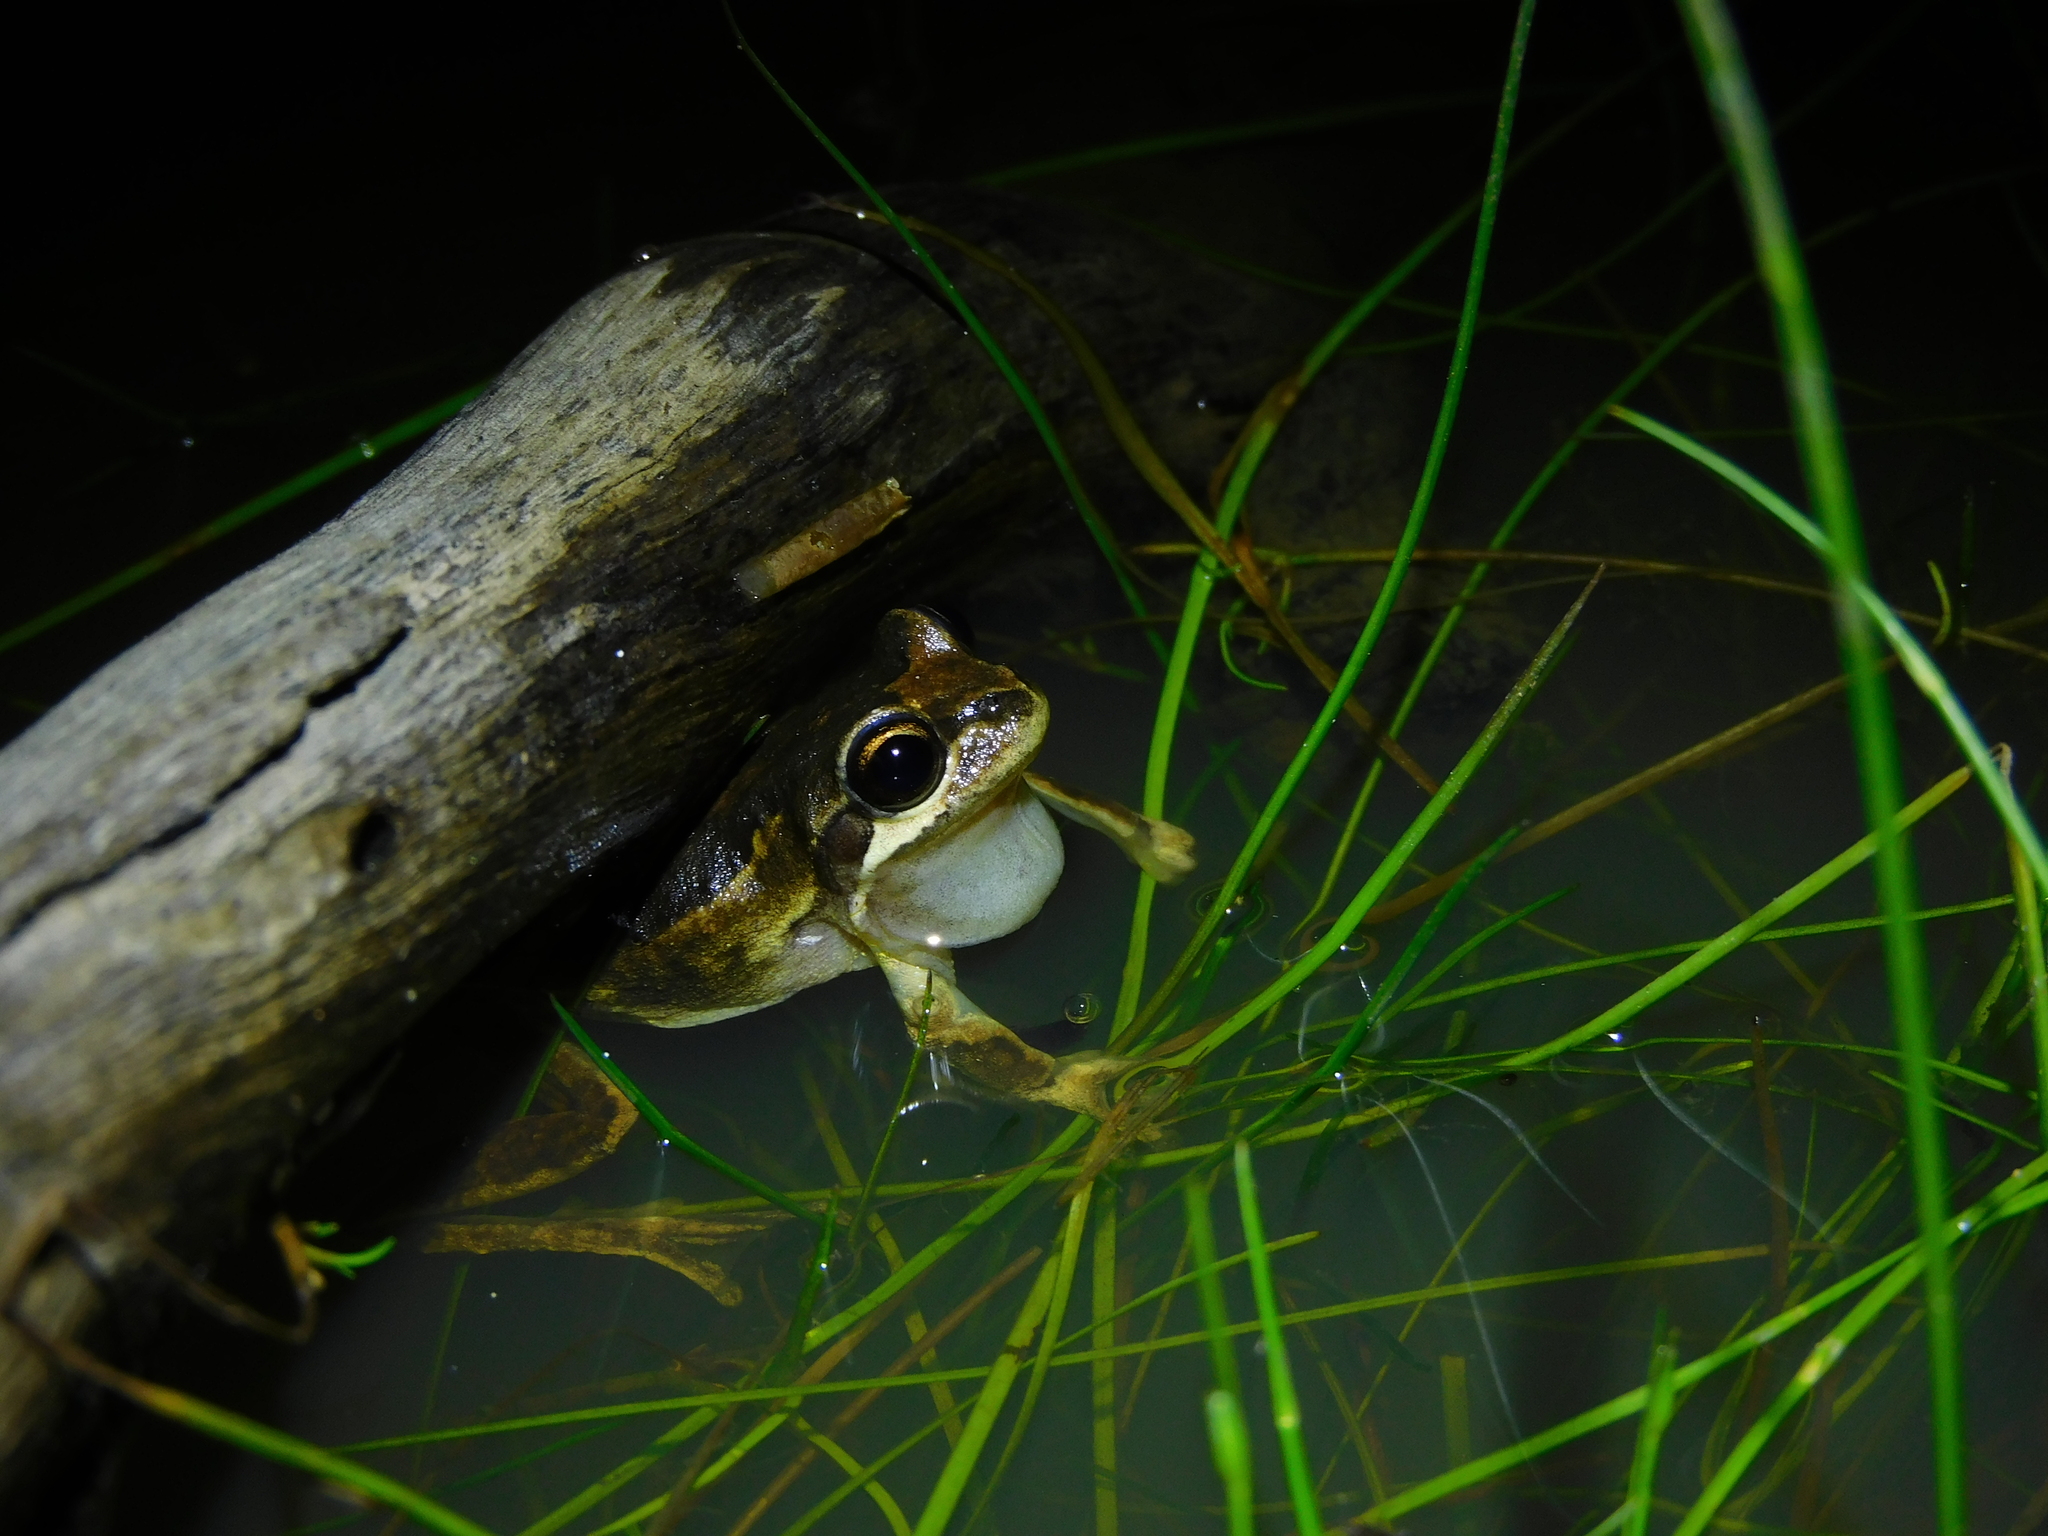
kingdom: Animalia
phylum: Chordata
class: Amphibia
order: Anura
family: Pelodryadidae
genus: Litoria
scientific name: Litoria ewingii
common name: Southern brown tree frog
